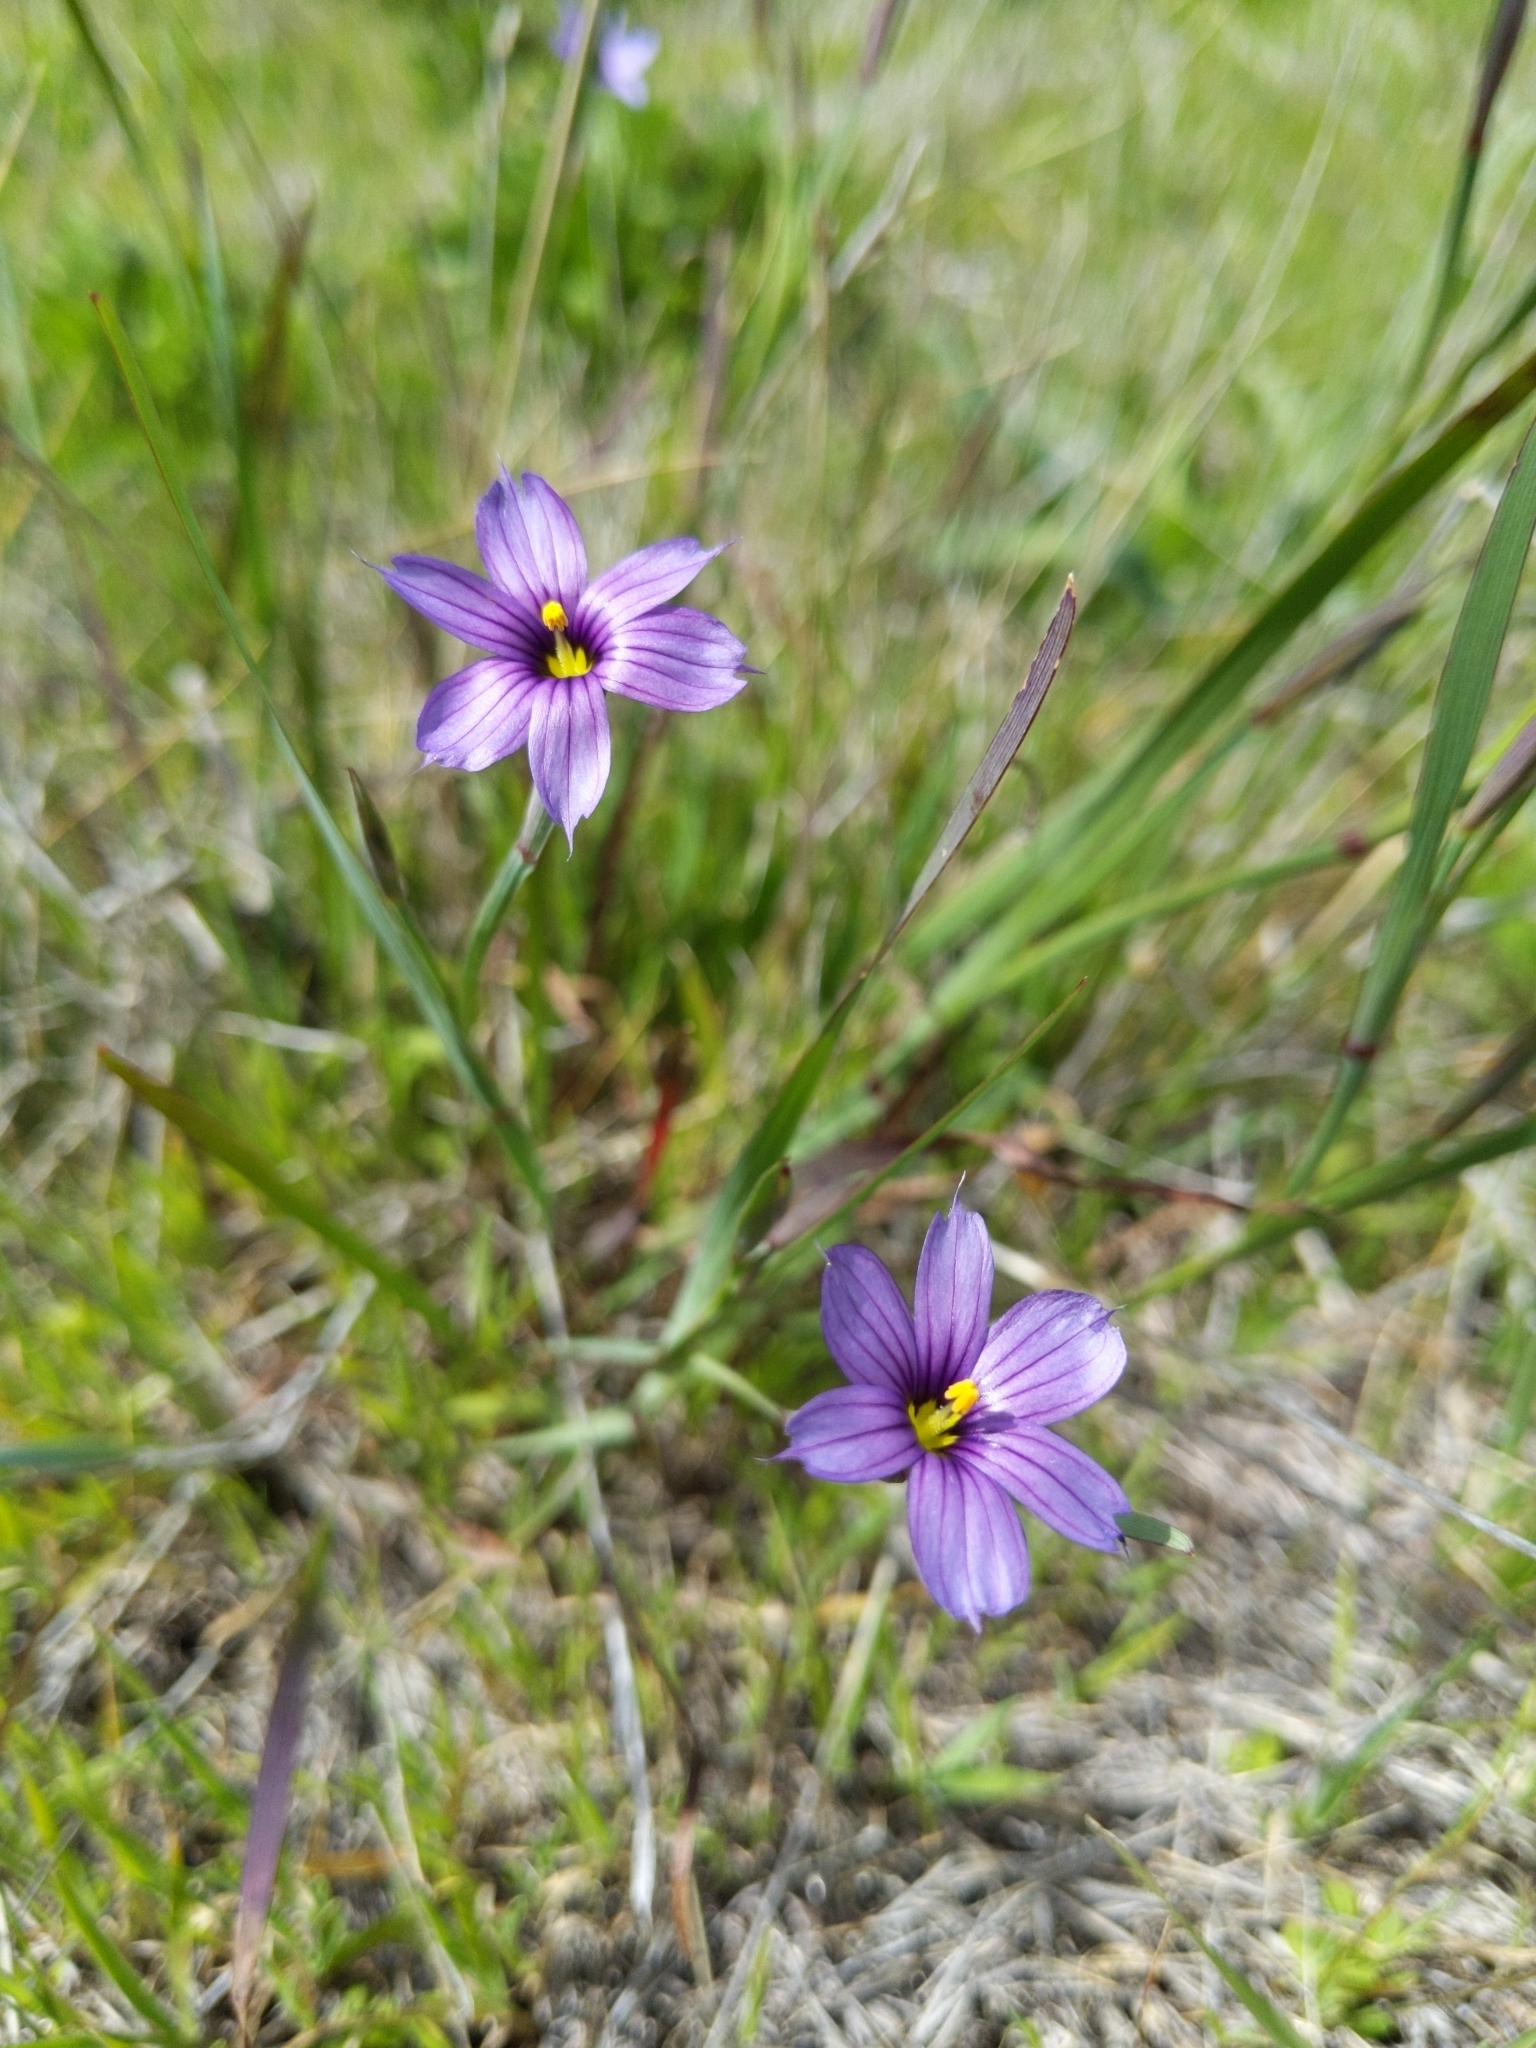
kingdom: Plantae
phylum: Tracheophyta
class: Liliopsida
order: Asparagales
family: Iridaceae
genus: Sisyrinchium
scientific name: Sisyrinchium bellum
